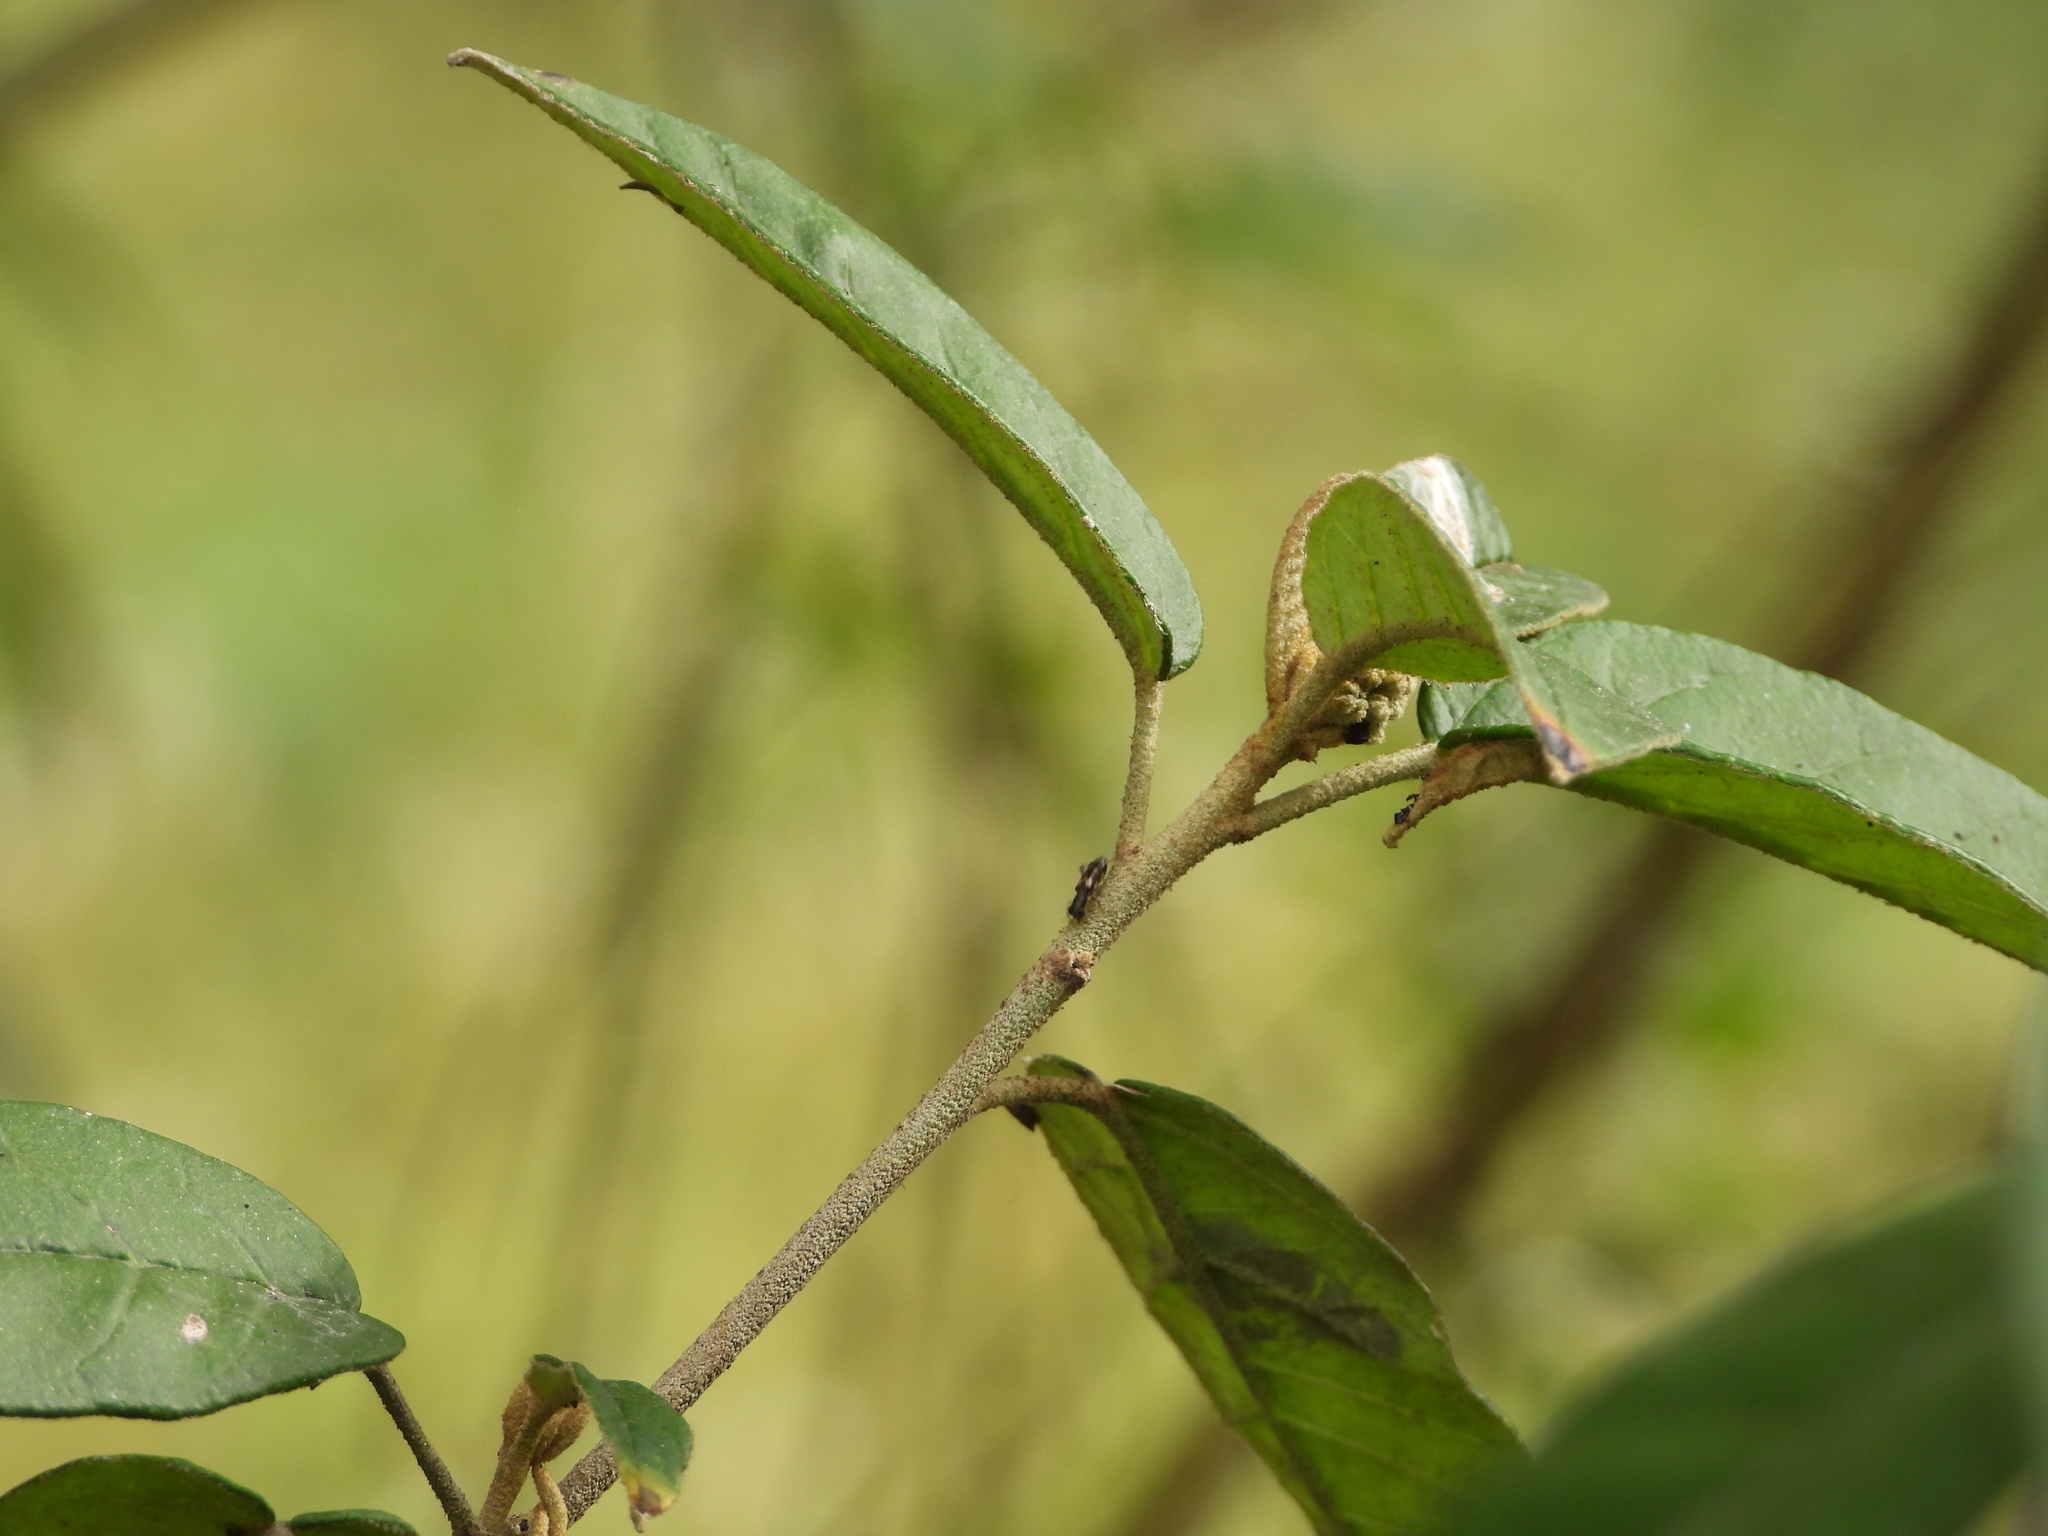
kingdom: Animalia
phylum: Arthropoda
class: Insecta
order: Coleoptera
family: Cleridae
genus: Phyllobaenus
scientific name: Phyllobaenus obscurus
